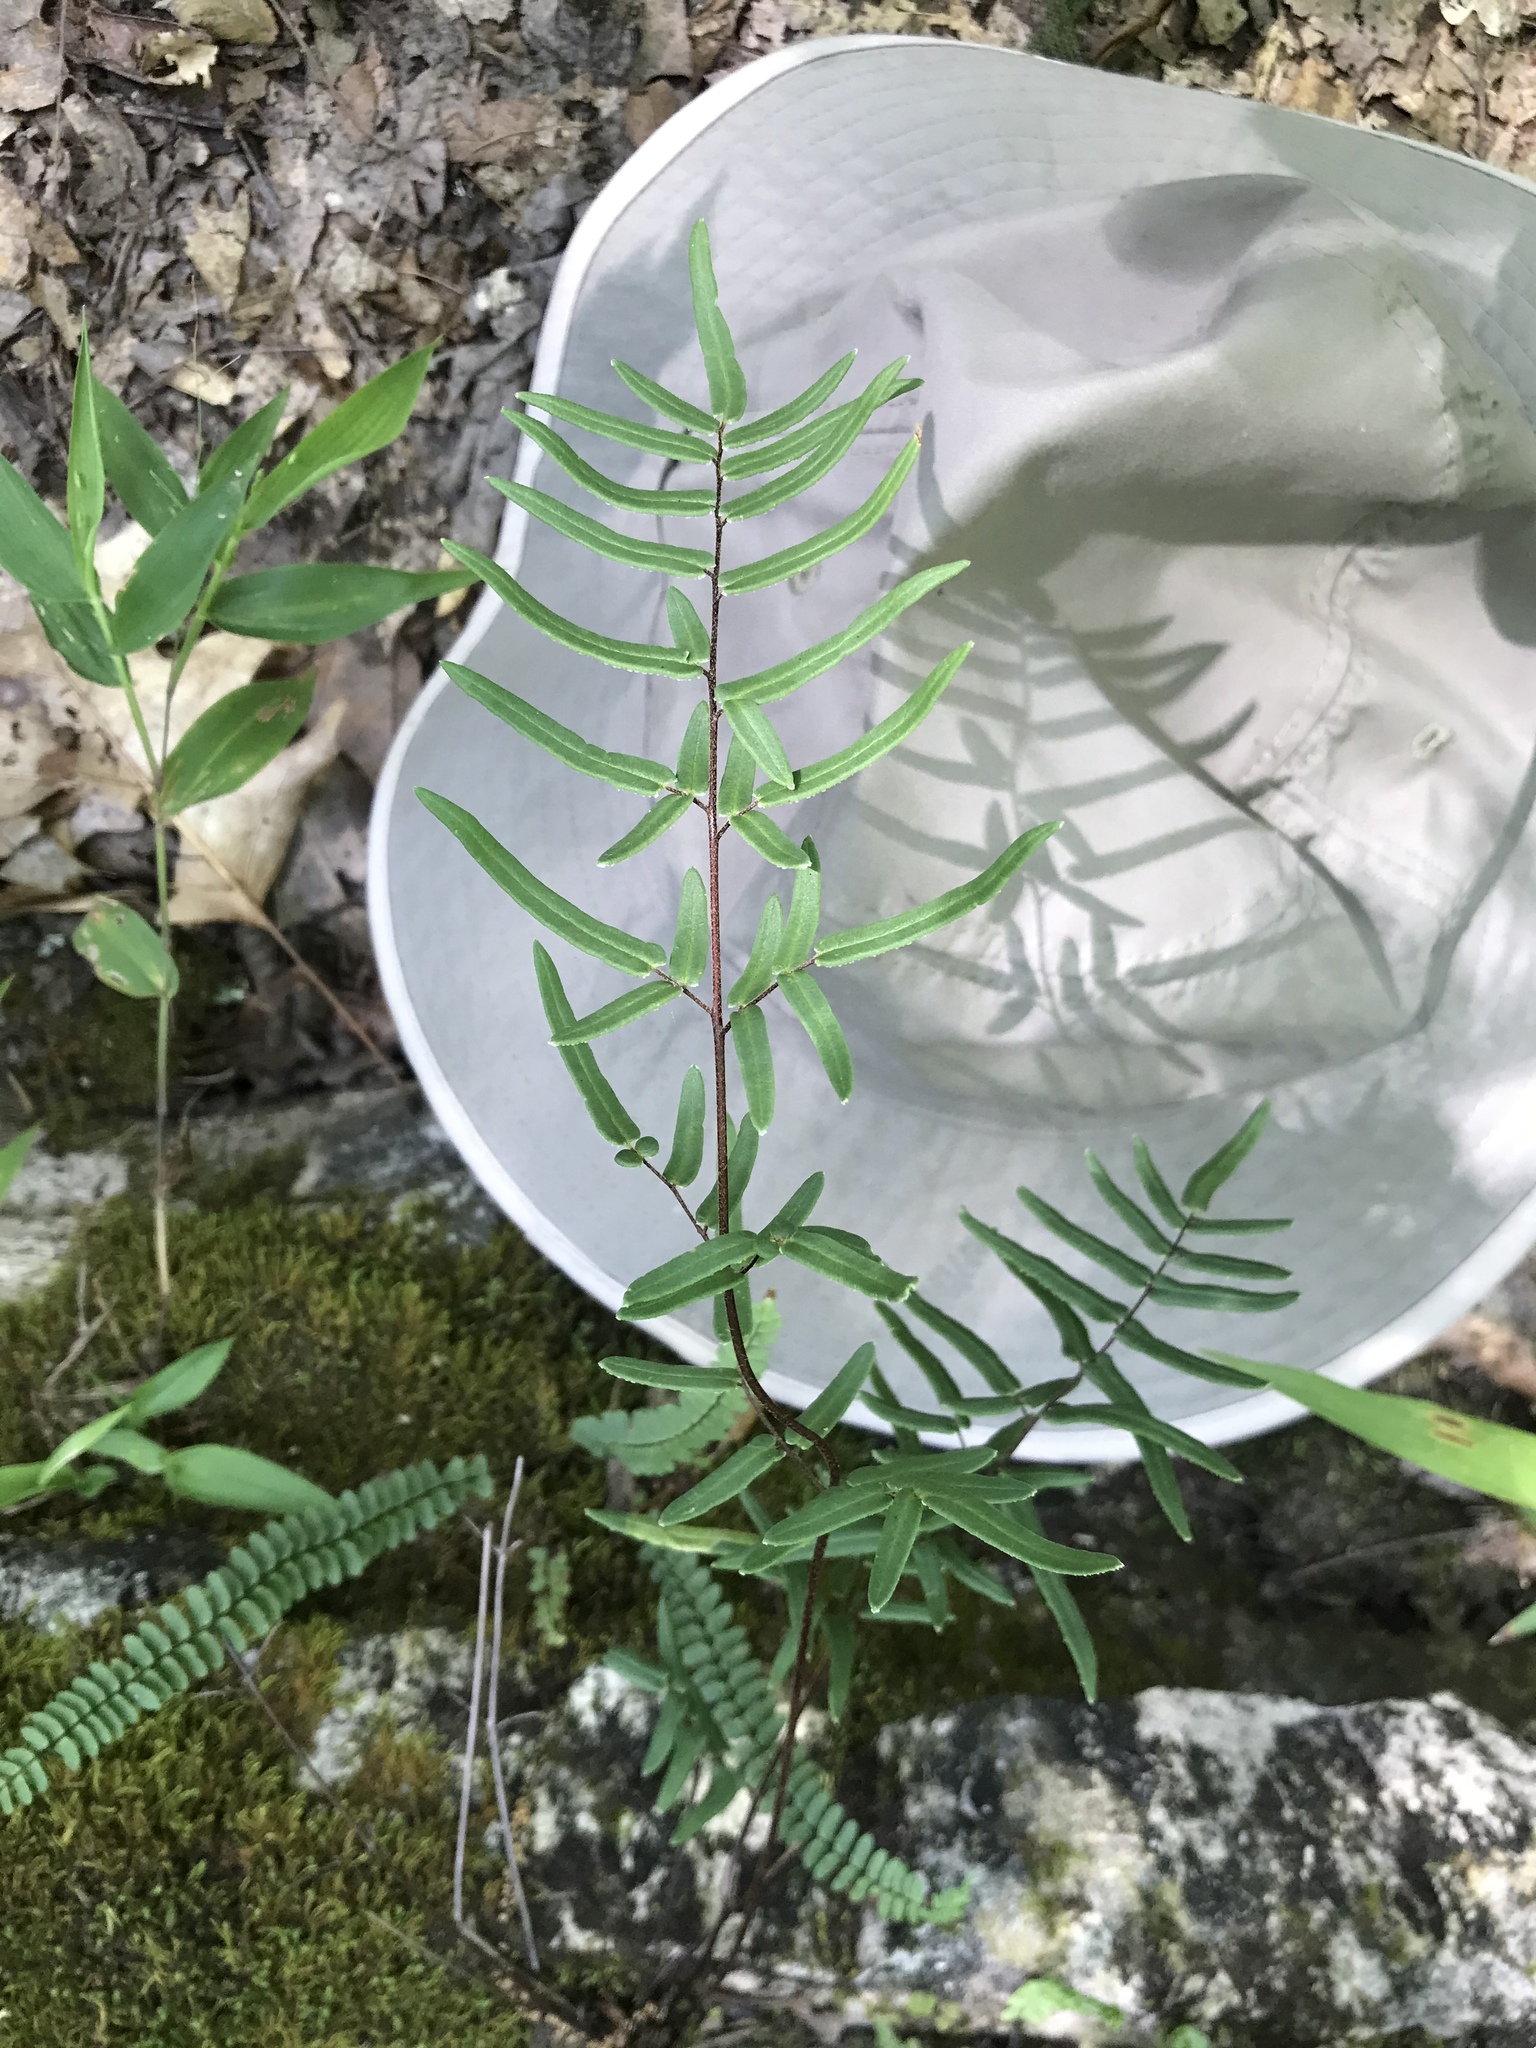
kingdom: Plantae
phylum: Tracheophyta
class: Polypodiopsida
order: Polypodiales
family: Pteridaceae
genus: Pellaea
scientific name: Pellaea atropurpurea
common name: Hairy cliffbrake
